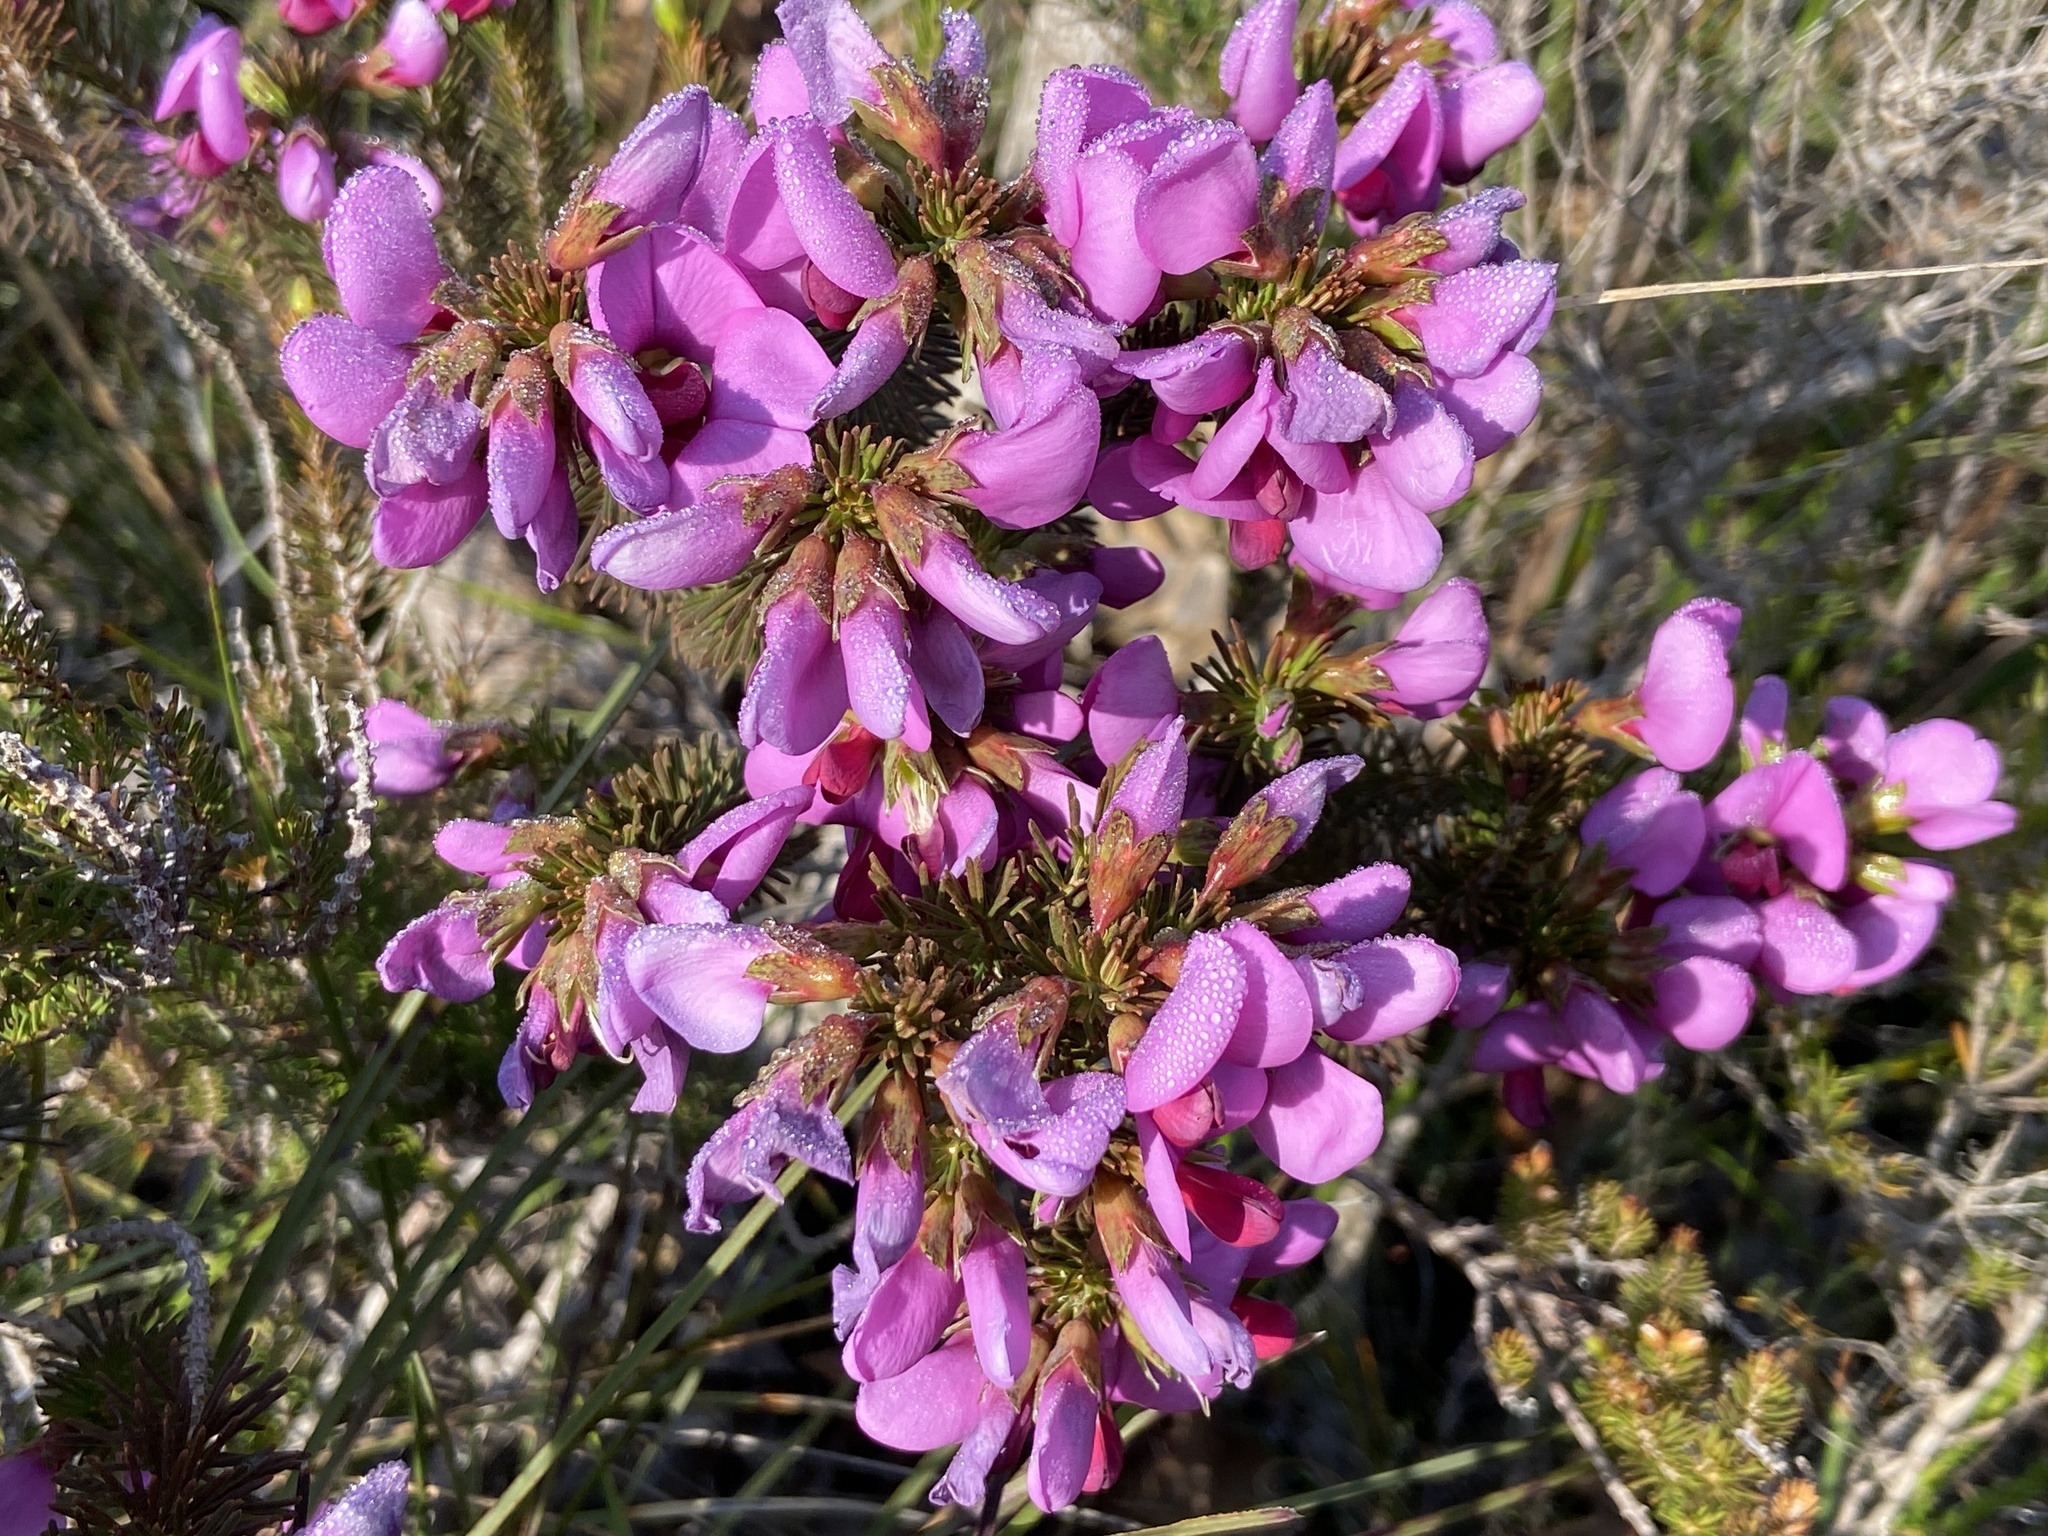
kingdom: Plantae
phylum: Tracheophyta
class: Magnoliopsida
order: Fabales
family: Fabaceae
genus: Gompholobium
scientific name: Gompholobium scabrum
